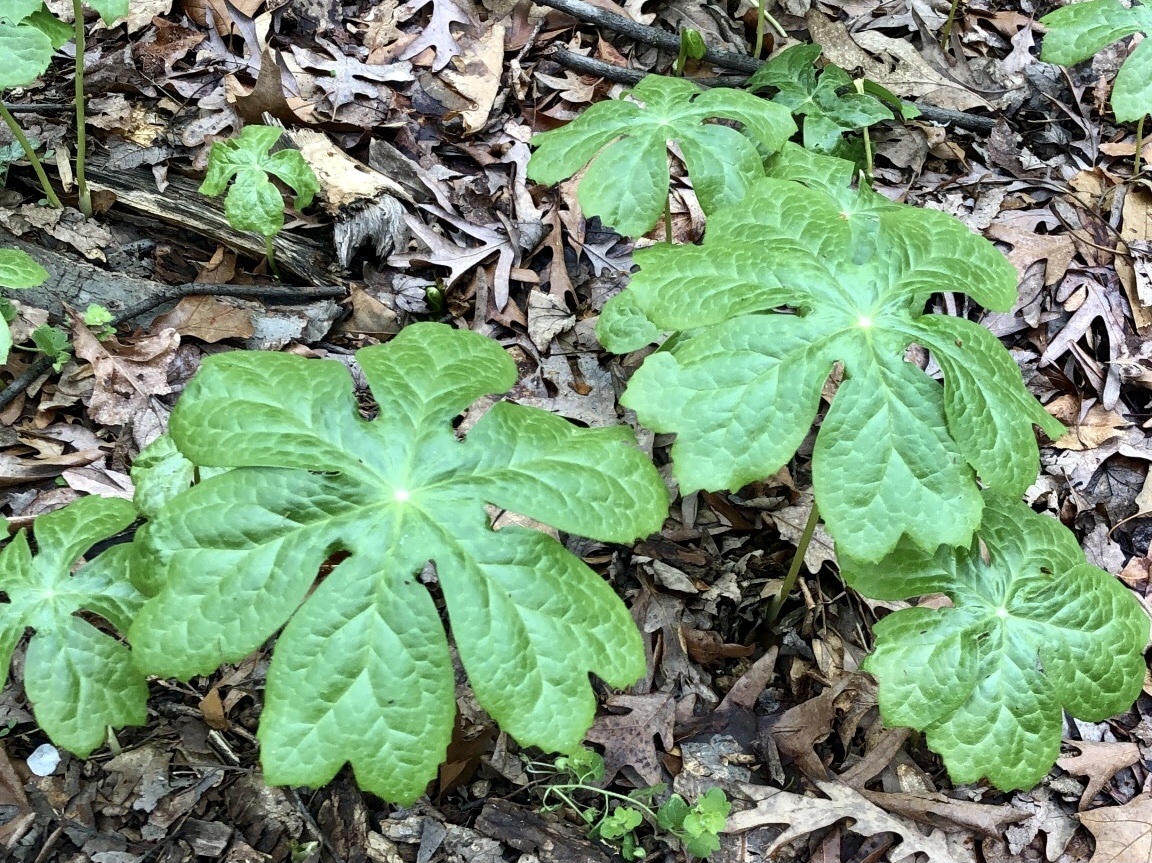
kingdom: Plantae
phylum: Tracheophyta
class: Magnoliopsida
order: Ranunculales
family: Berberidaceae
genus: Podophyllum
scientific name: Podophyllum peltatum
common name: Wild mandrake
